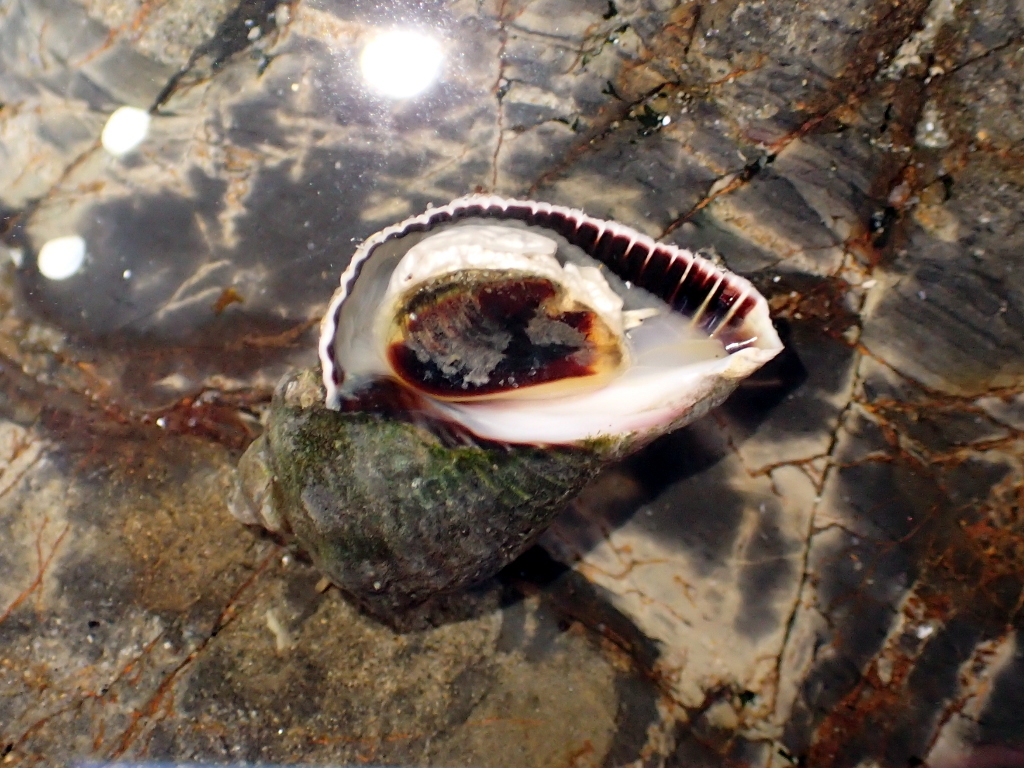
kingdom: Animalia
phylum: Mollusca
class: Gastropoda
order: Neogastropoda
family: Muricidae
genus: Haustrum
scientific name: Haustrum haustorium
